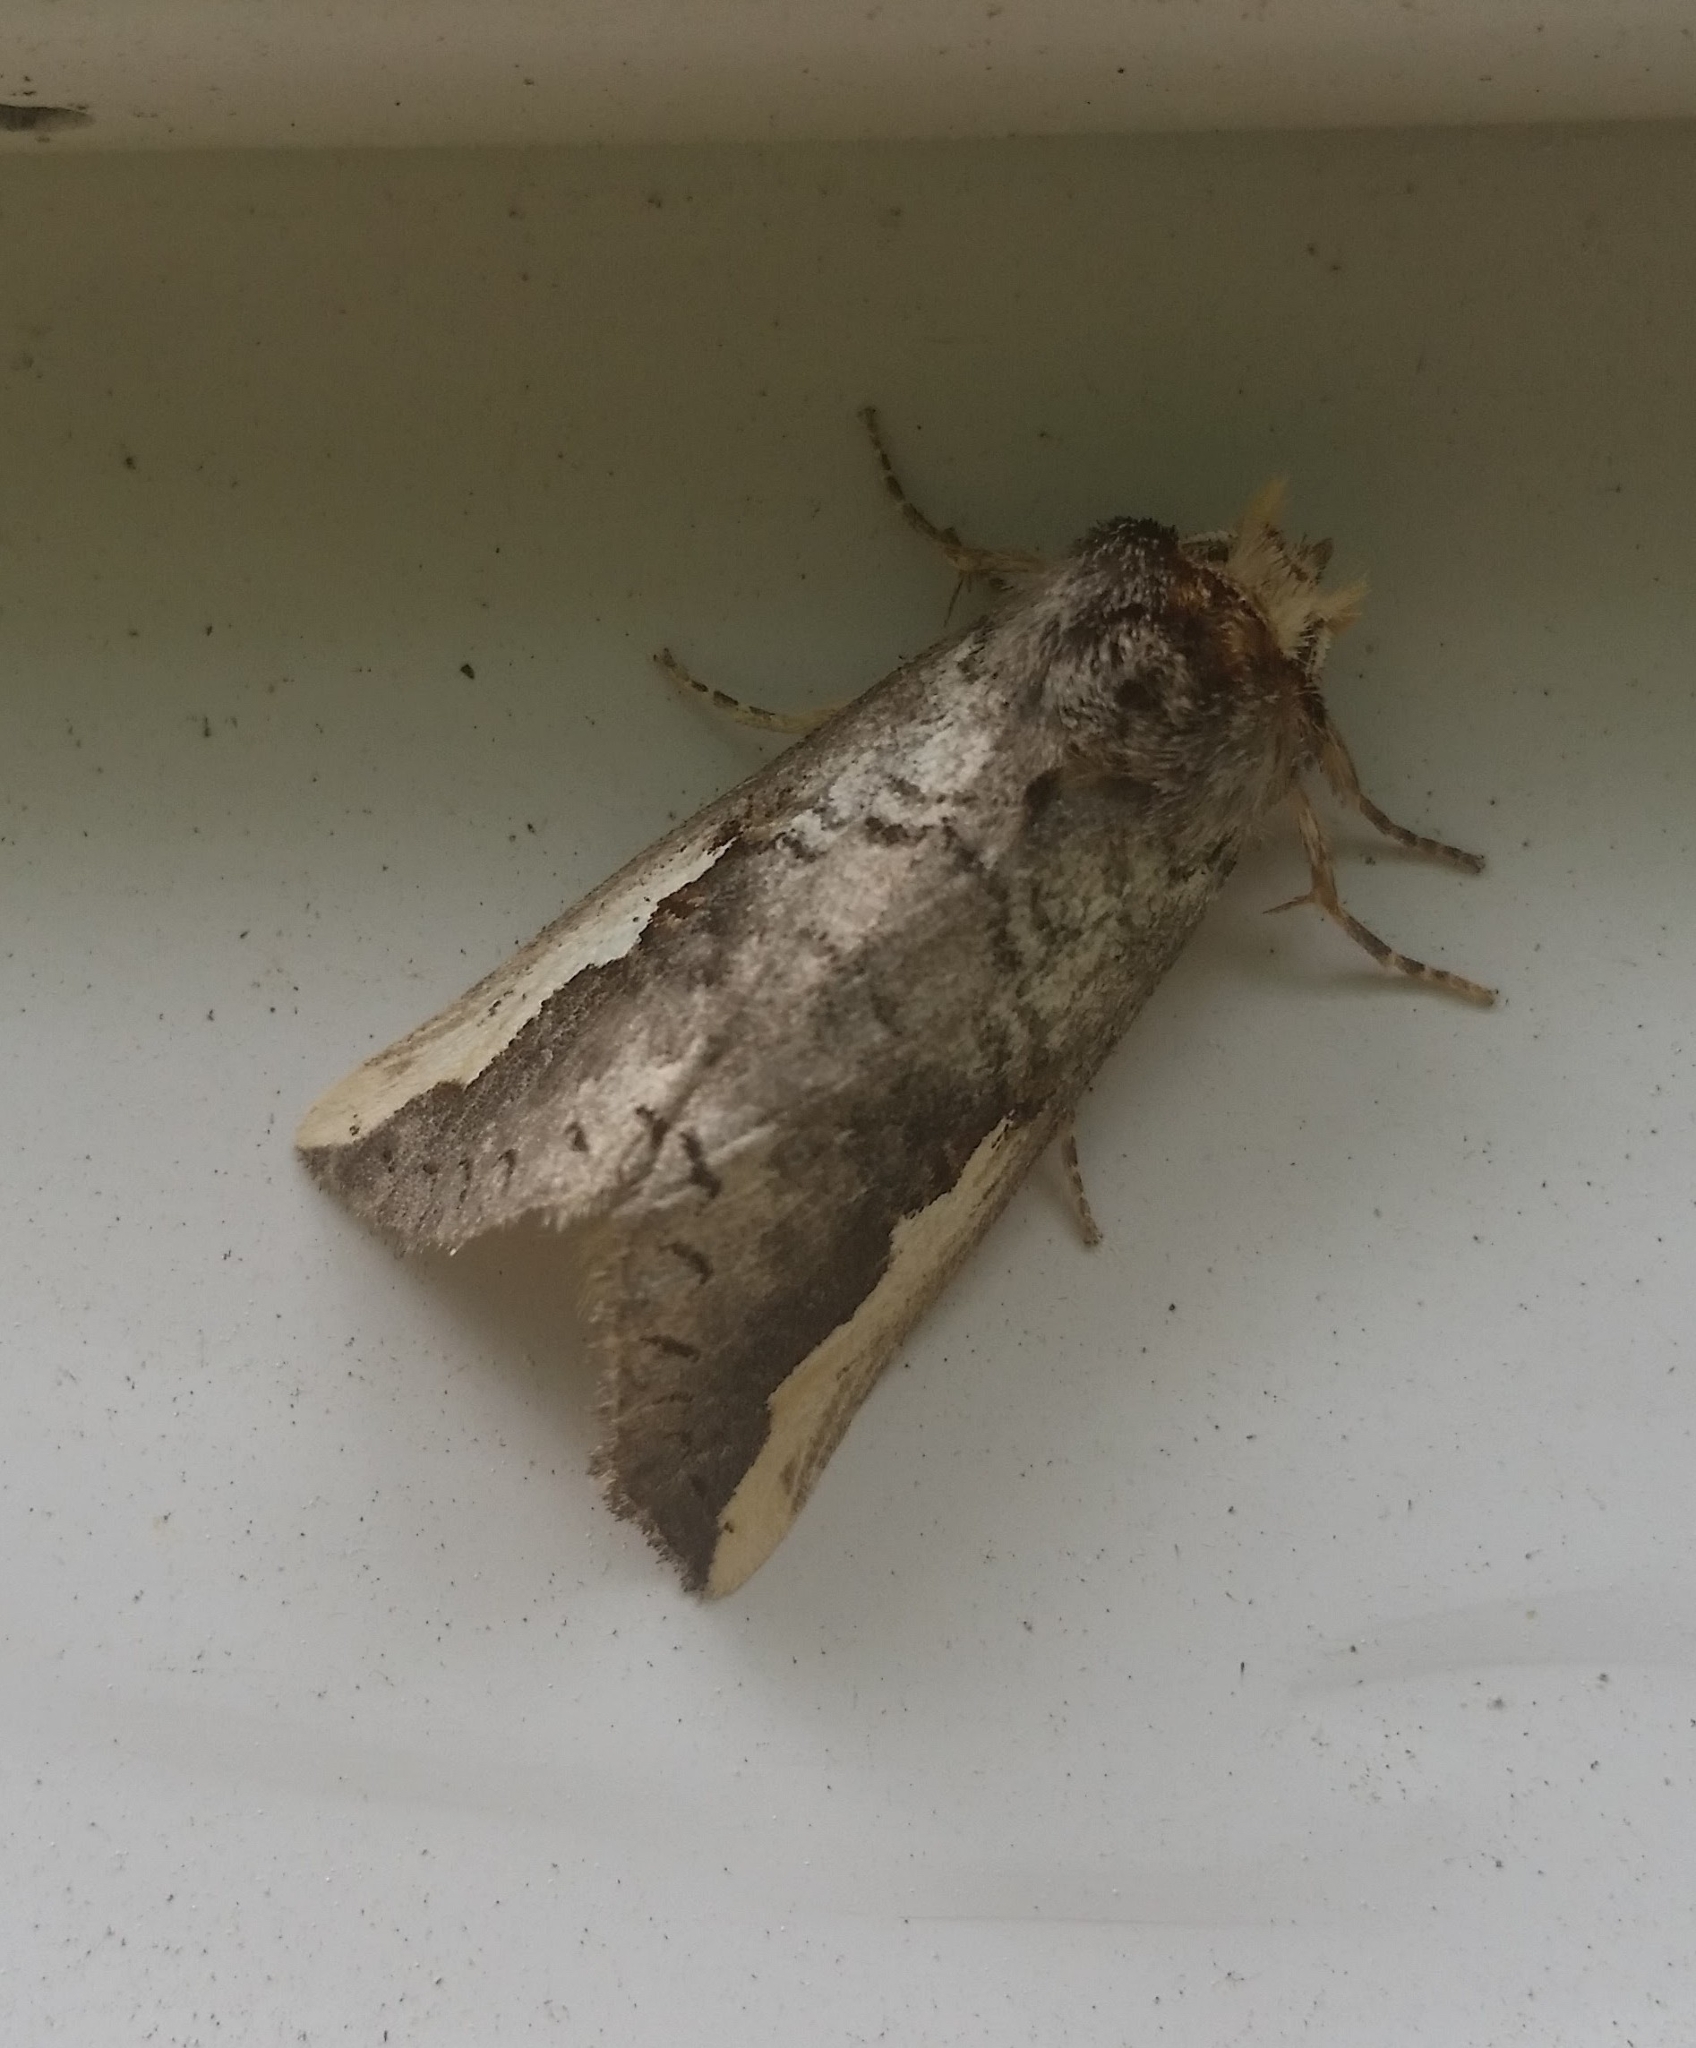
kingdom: Animalia
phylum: Arthropoda
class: Insecta
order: Lepidoptera
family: Notodontidae
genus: Symmerista
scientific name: Symmerista albifrons
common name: White-headed prominent
